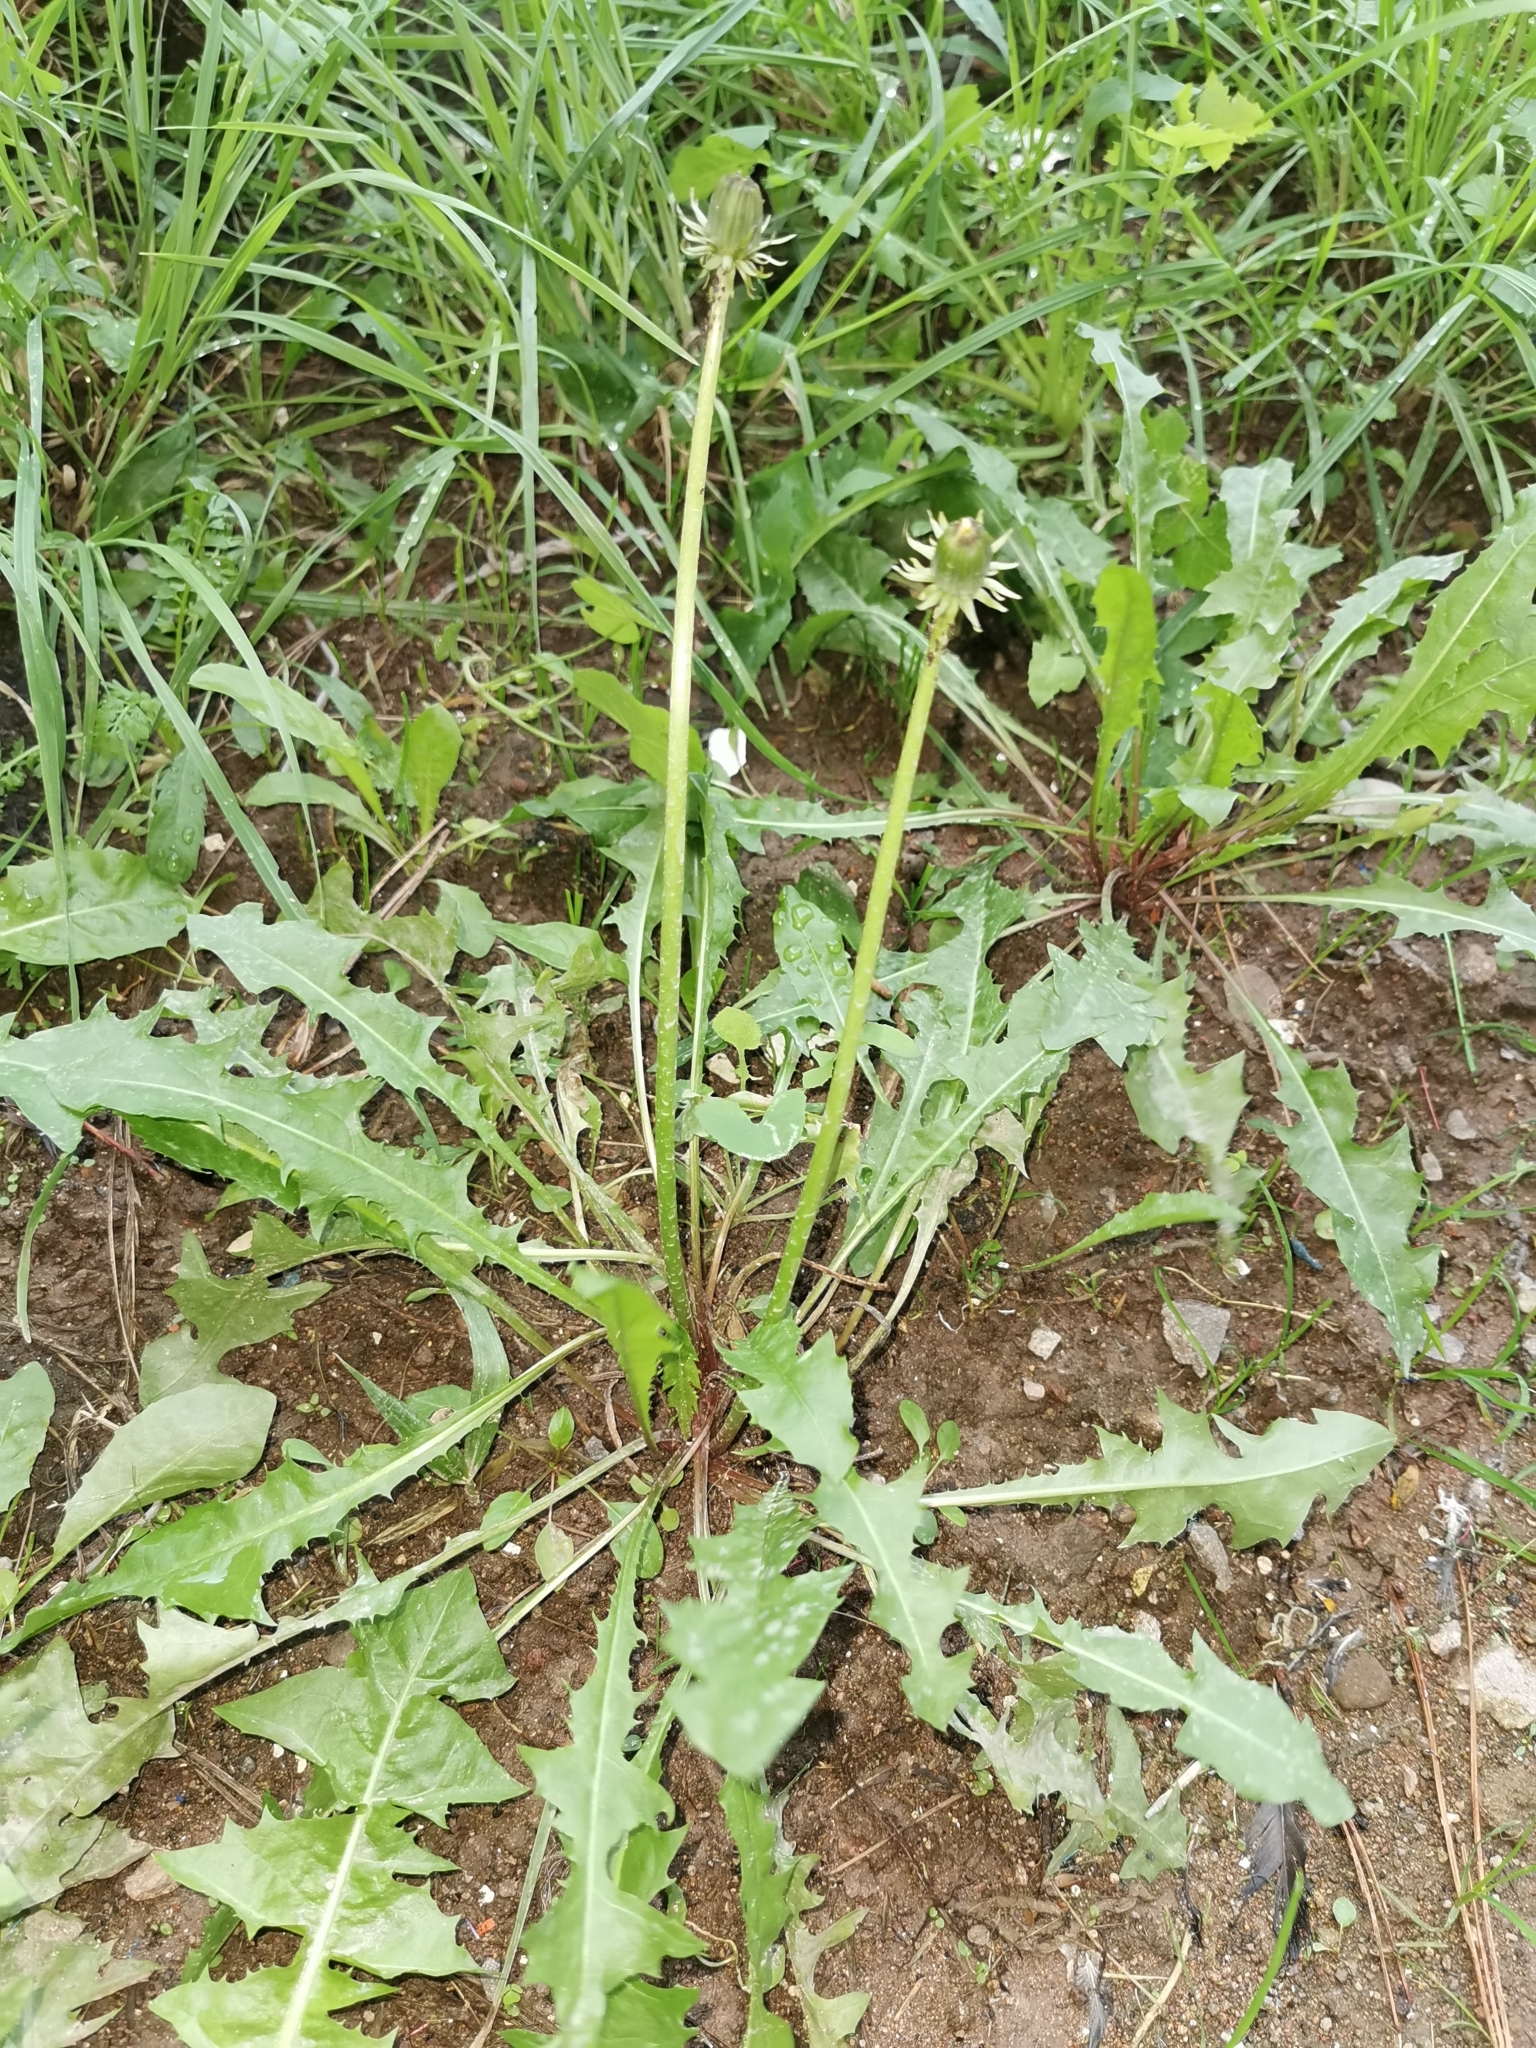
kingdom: Plantae
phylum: Tracheophyta
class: Magnoliopsida
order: Asterales
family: Asteraceae
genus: Taraxacum
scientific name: Taraxacum officinale
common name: Common dandelion
